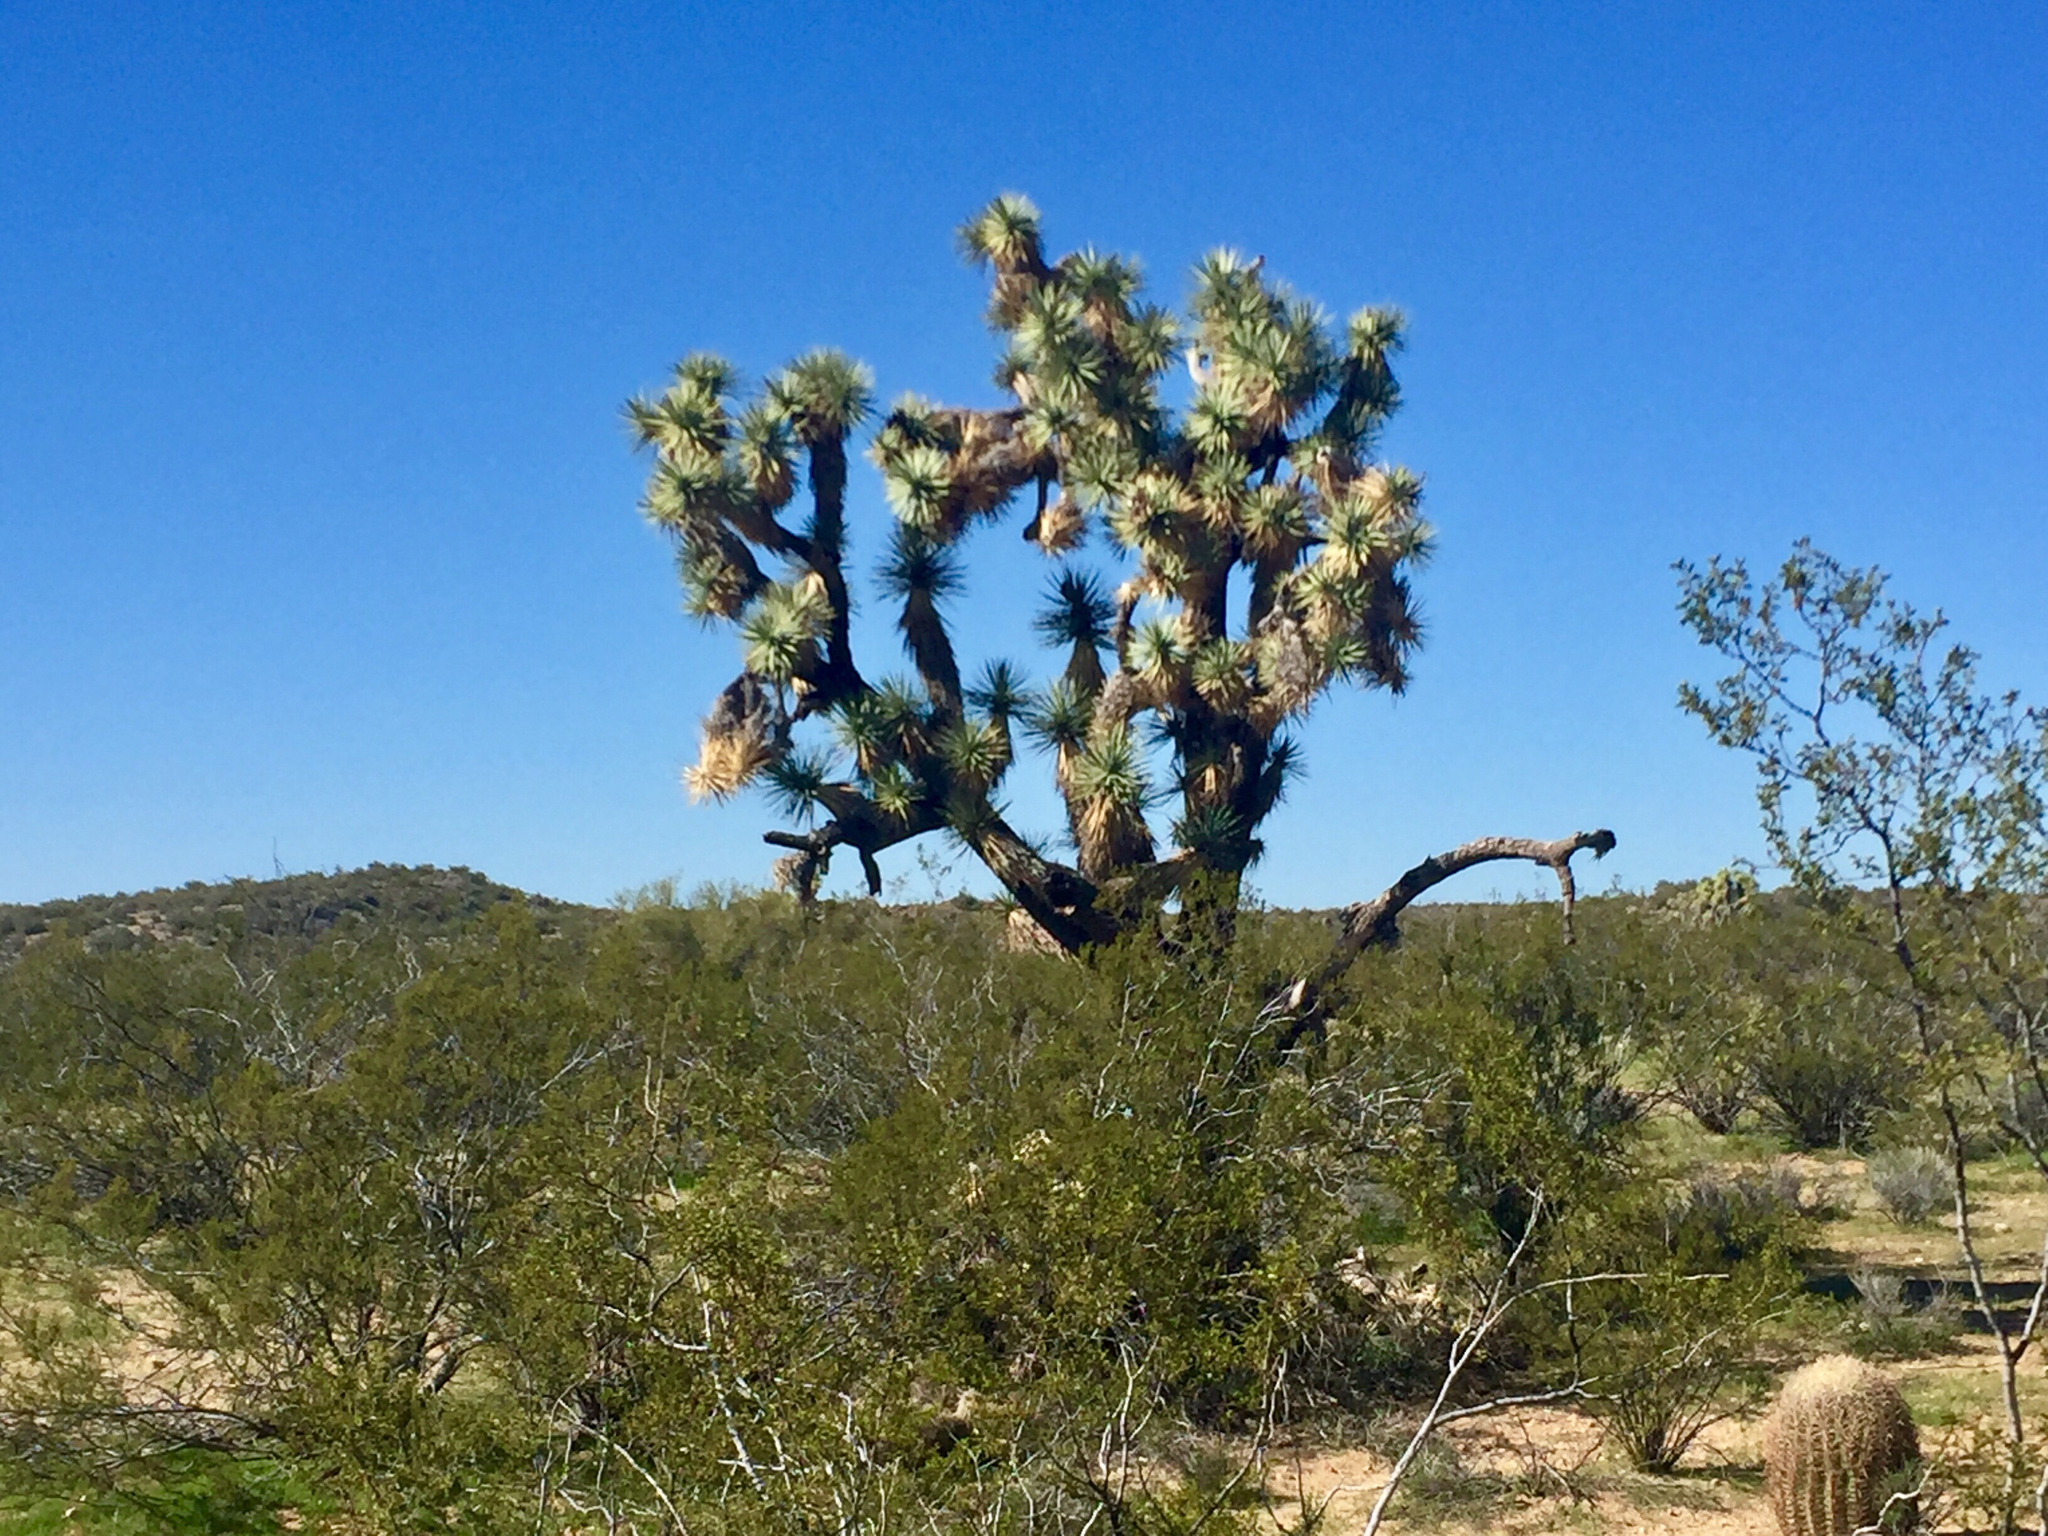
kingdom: Plantae
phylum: Tracheophyta
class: Liliopsida
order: Asparagales
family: Asparagaceae
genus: Yucca
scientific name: Yucca brevifolia
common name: Joshua tree
